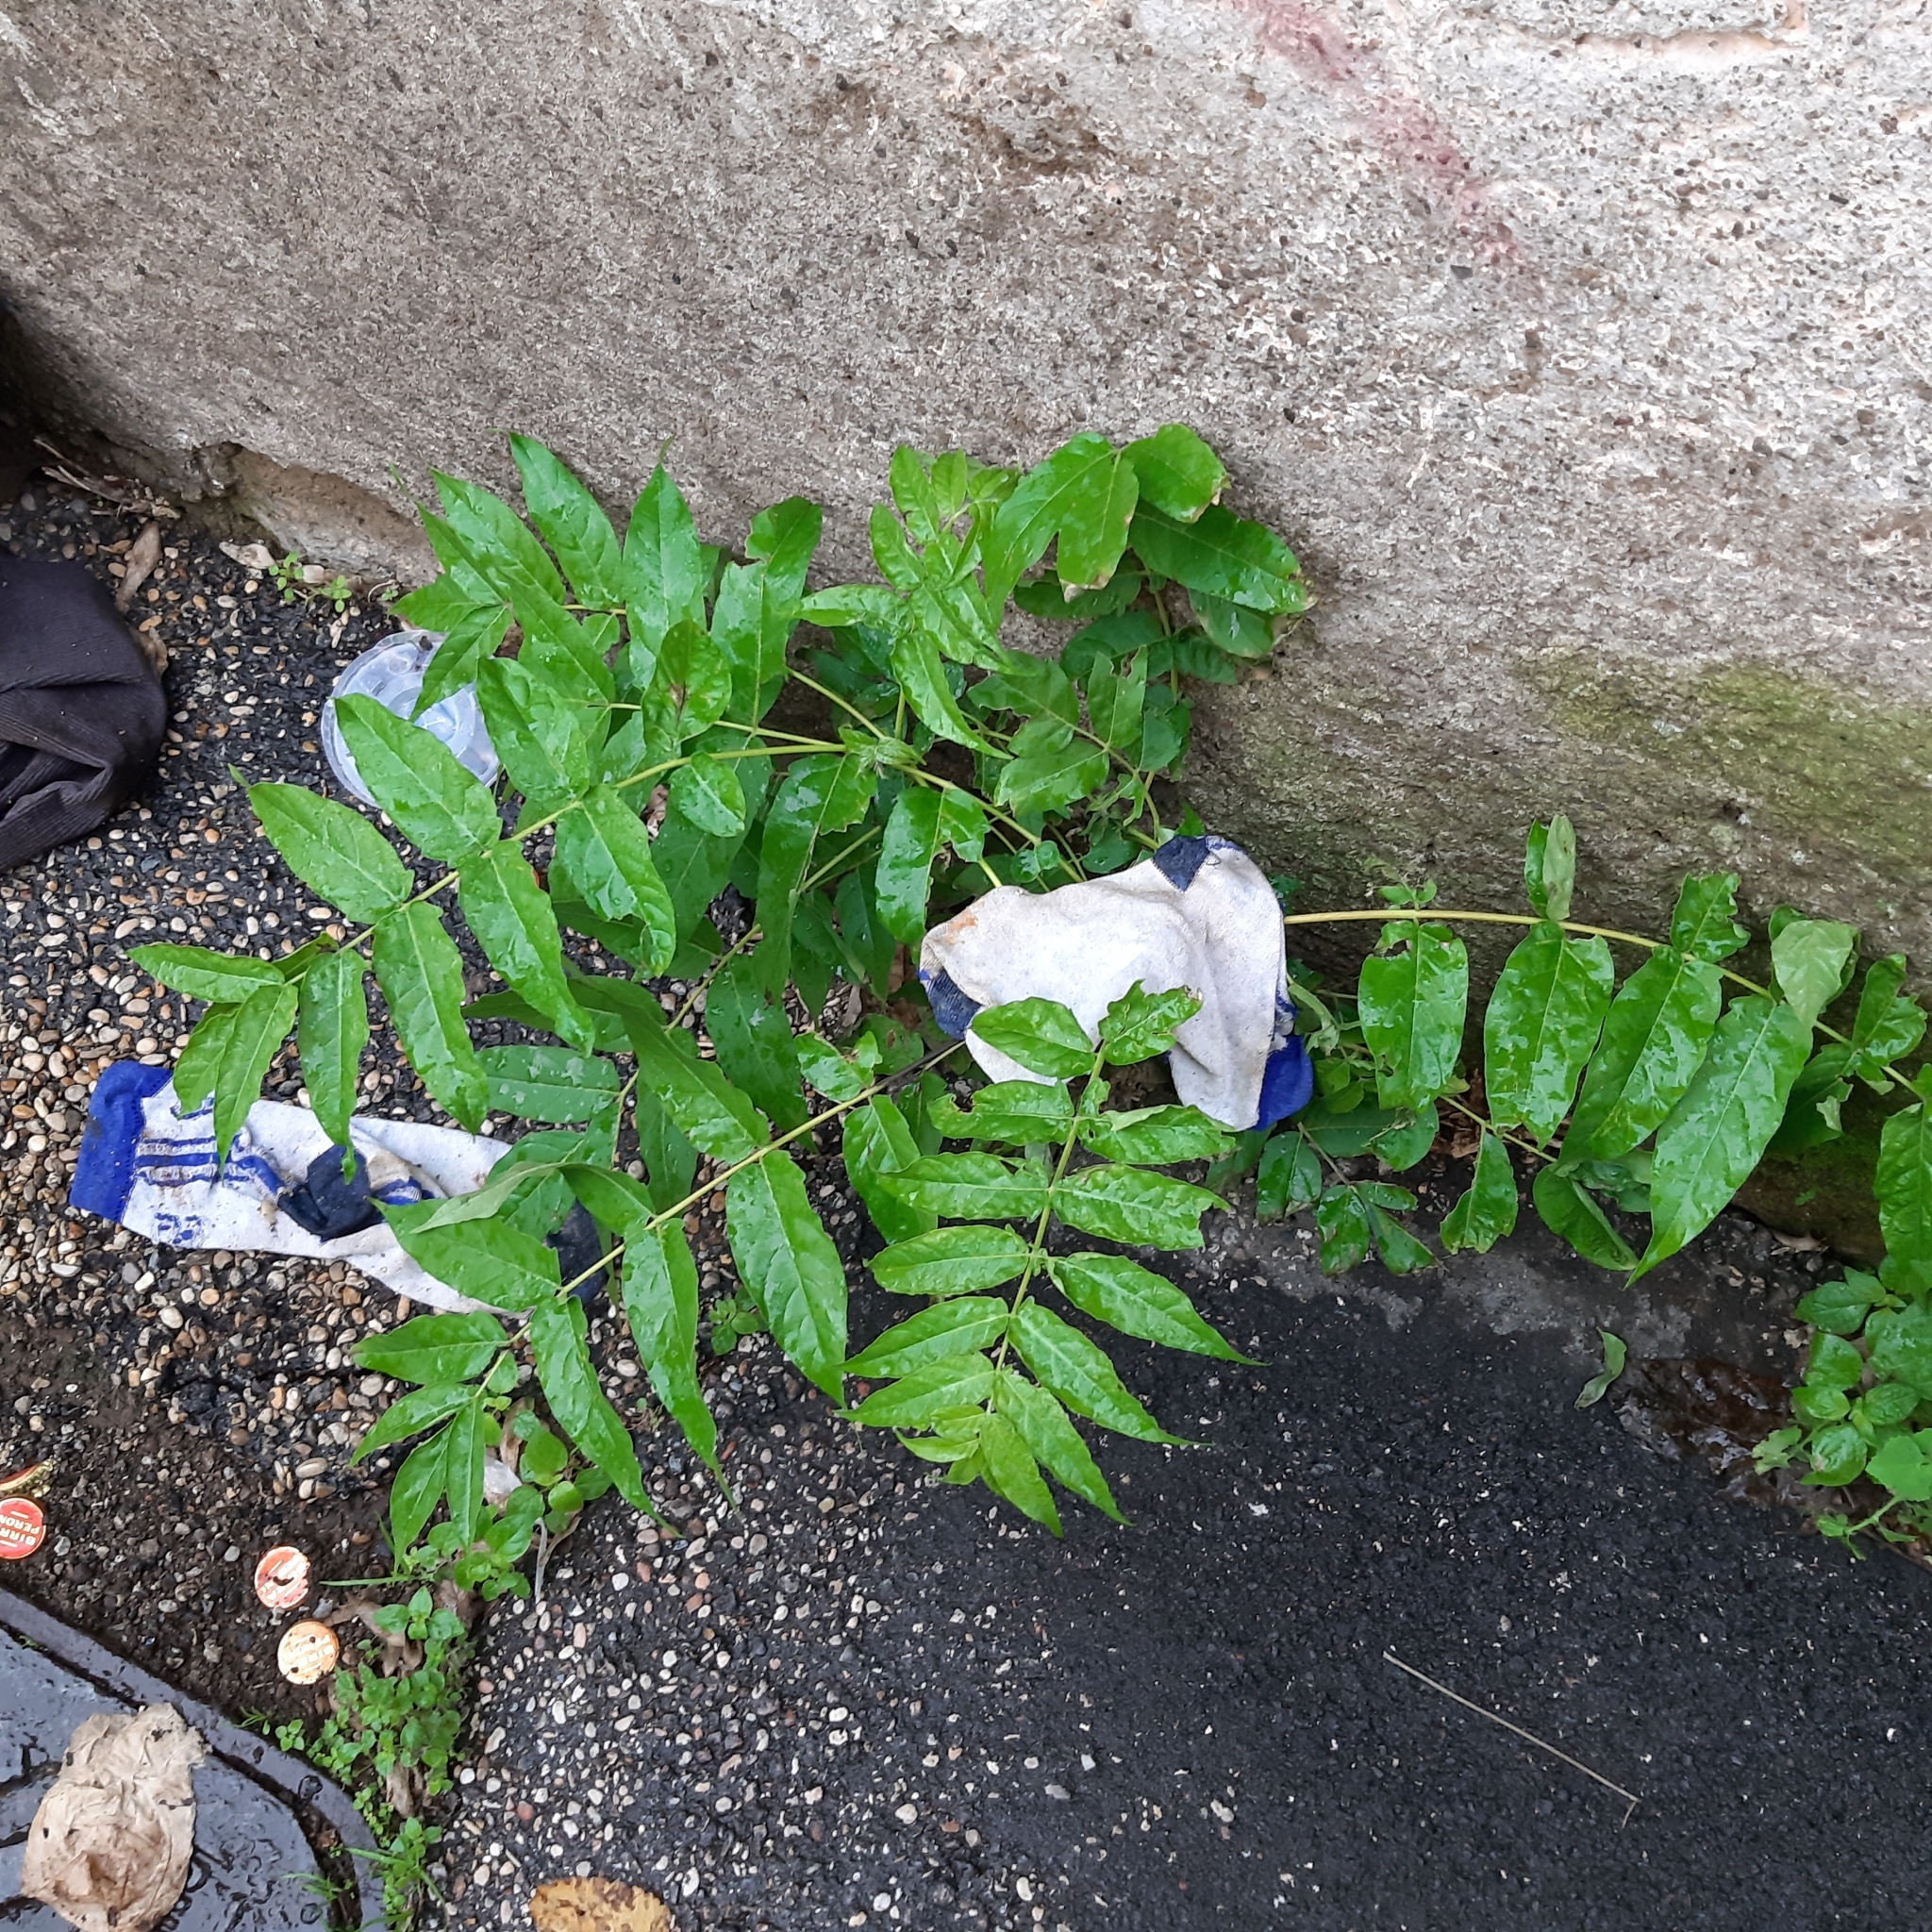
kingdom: Plantae
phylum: Tracheophyta
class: Magnoliopsida
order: Sapindales
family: Simaroubaceae
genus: Ailanthus
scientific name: Ailanthus altissima
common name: Tree-of-heaven
